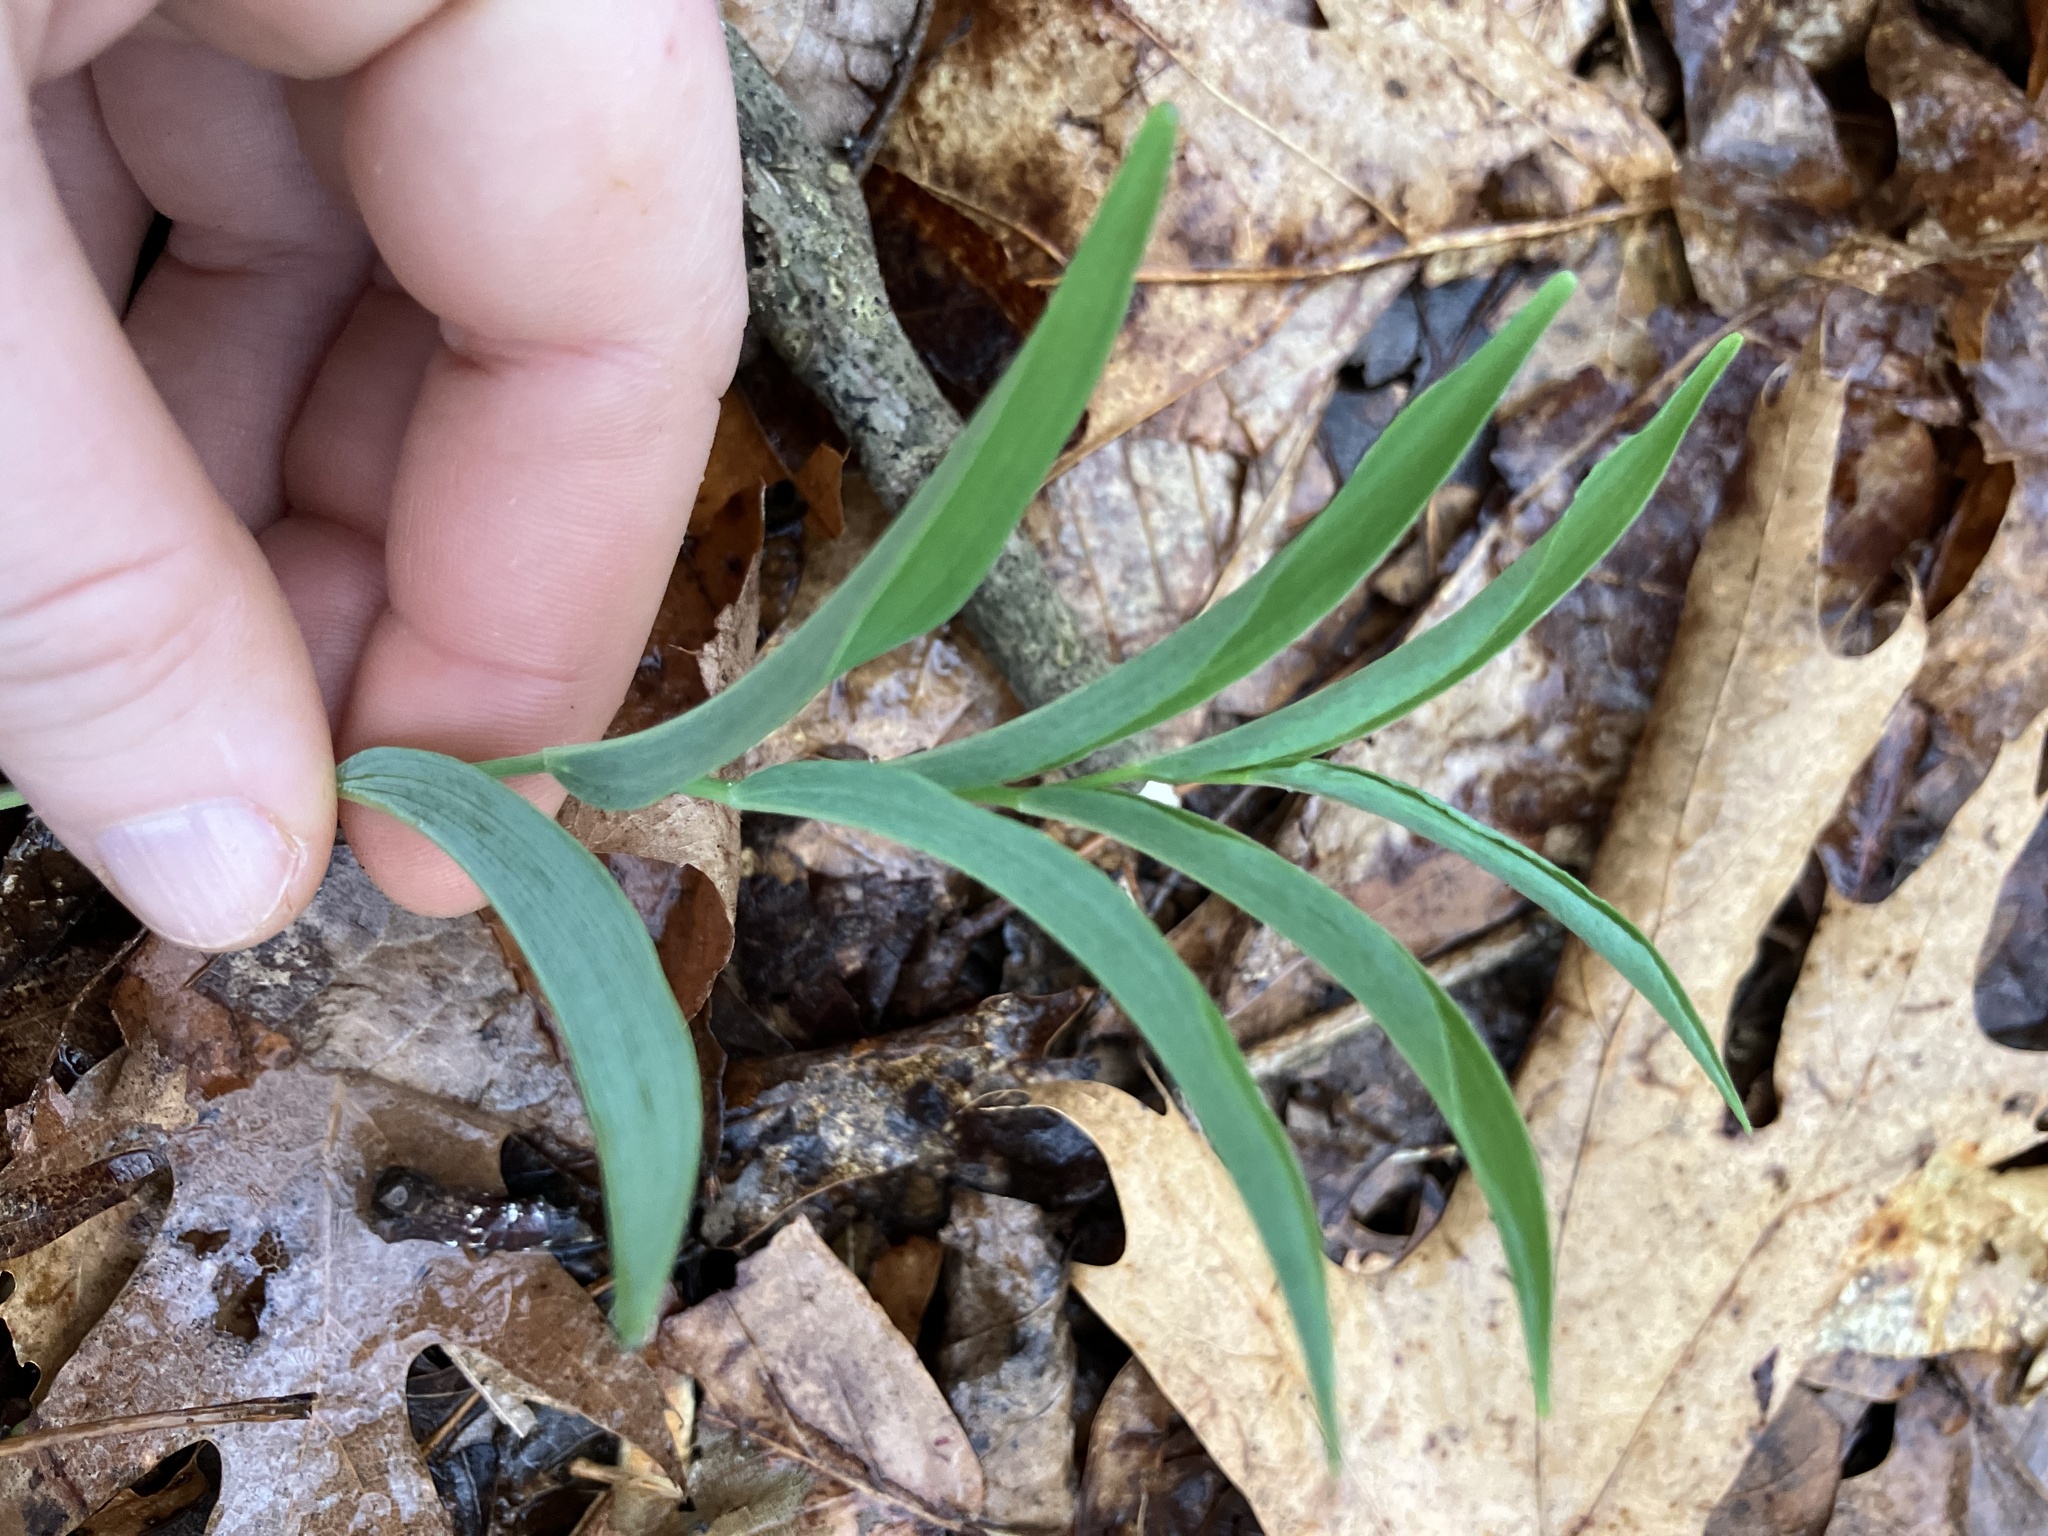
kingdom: Plantae
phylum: Tracheophyta
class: Liliopsida
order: Asparagales
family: Asparagaceae
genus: Polygonatum
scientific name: Polygonatum biflorum
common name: American solomon's-seal
